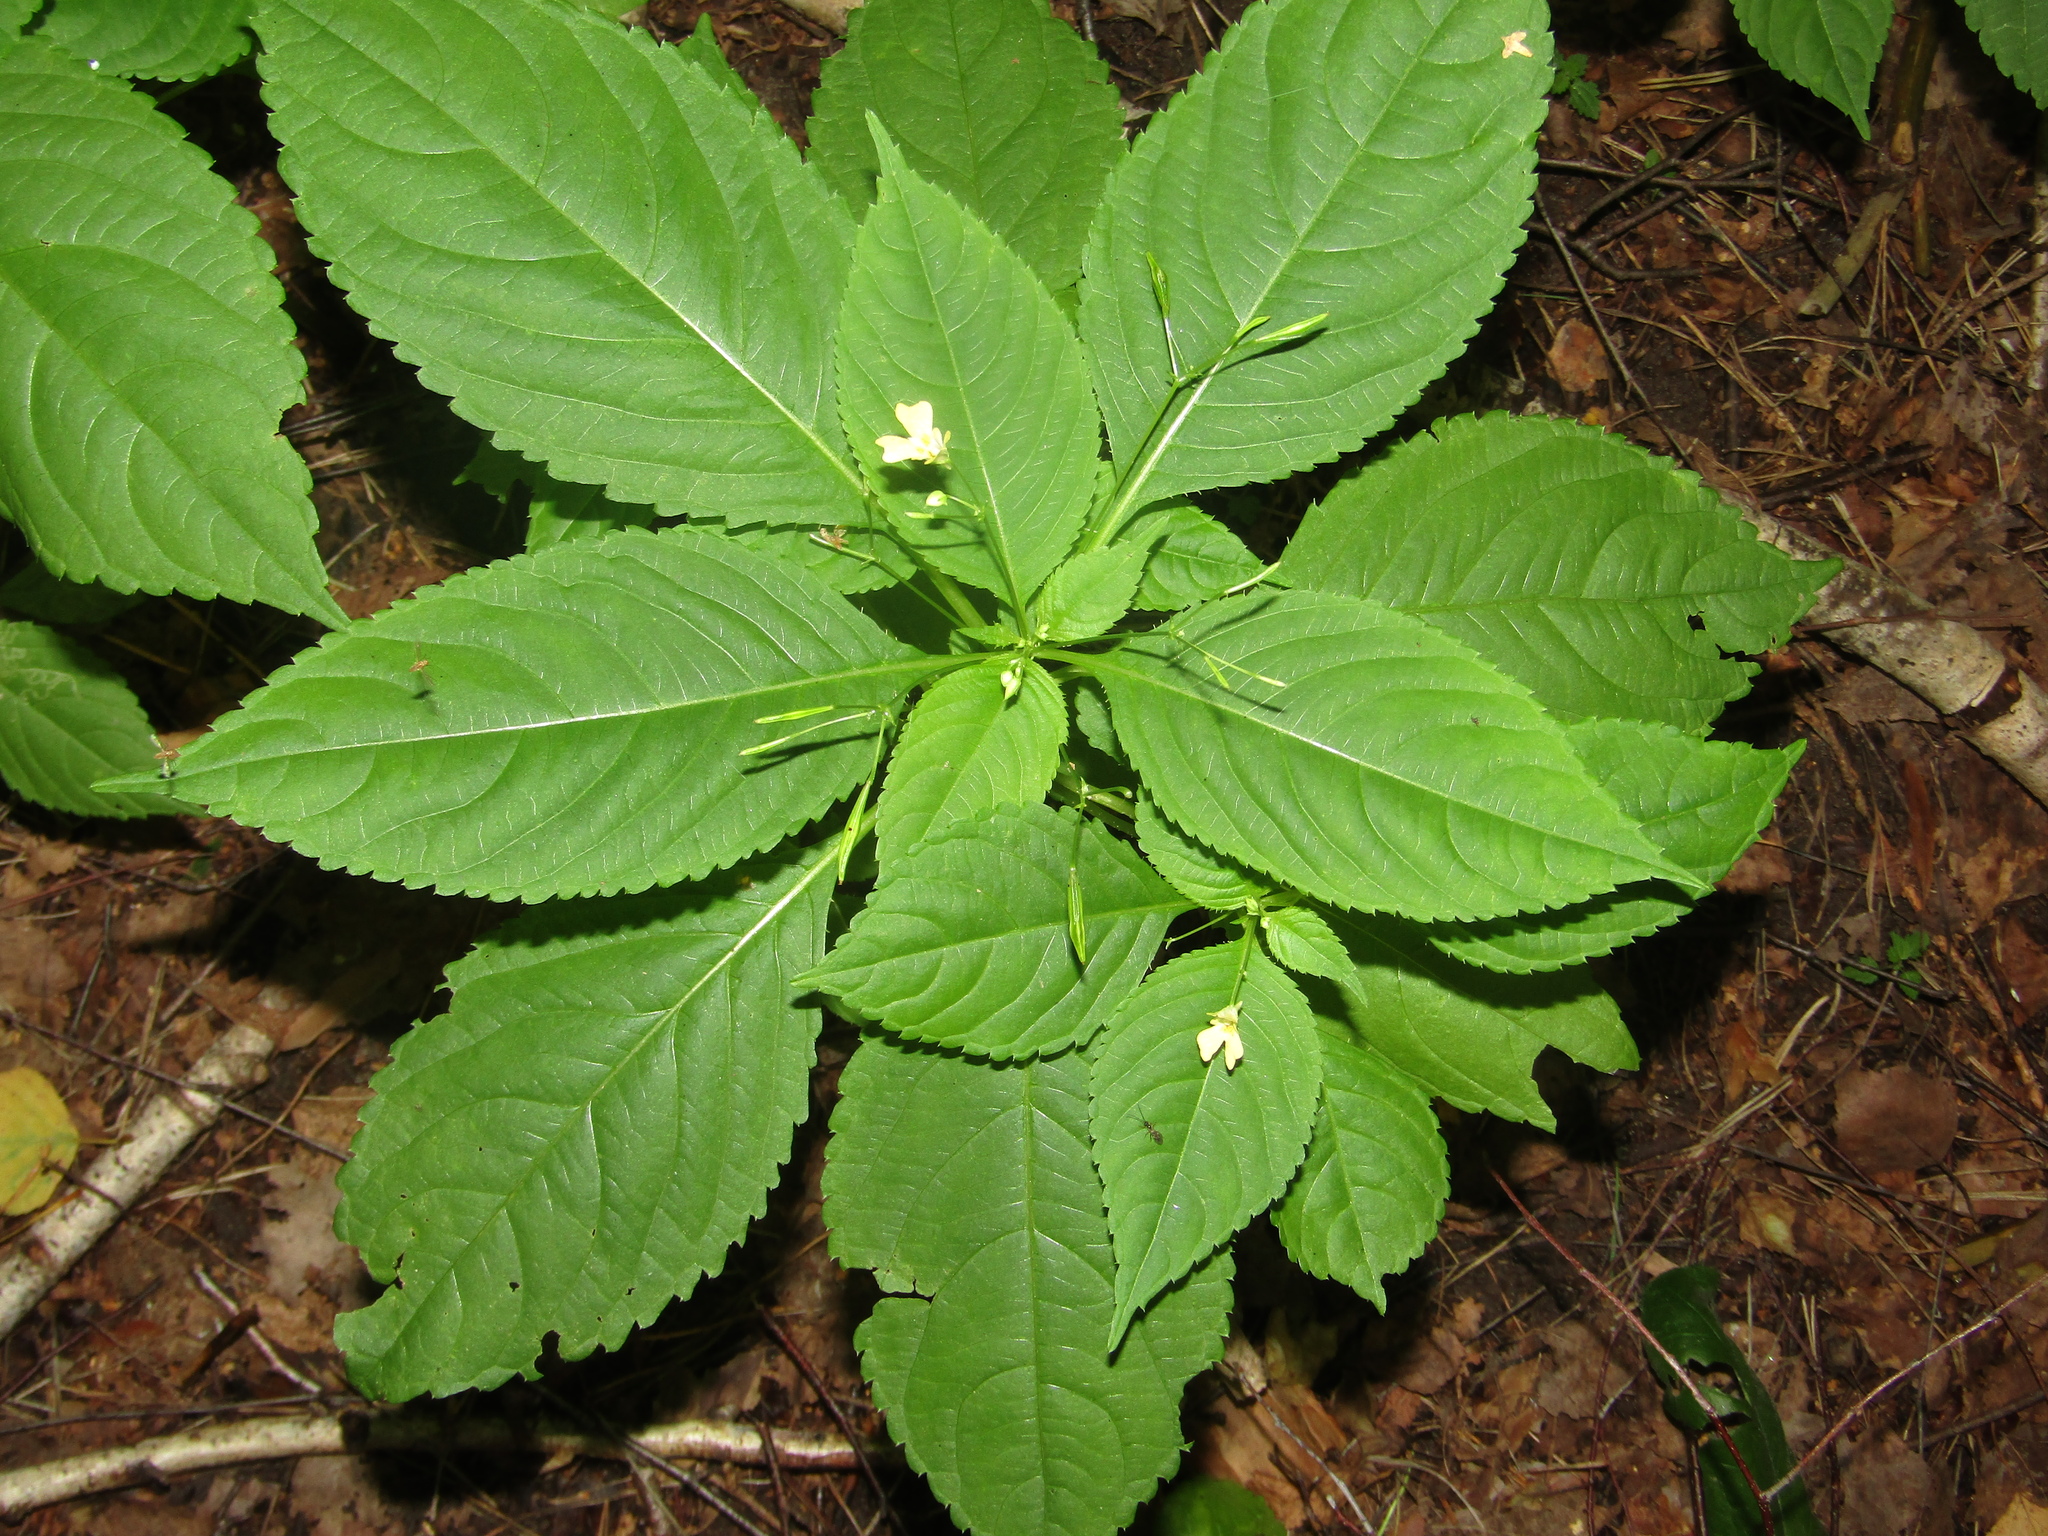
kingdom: Plantae
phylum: Tracheophyta
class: Magnoliopsida
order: Ericales
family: Balsaminaceae
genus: Impatiens
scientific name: Impatiens parviflora
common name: Small balsam
